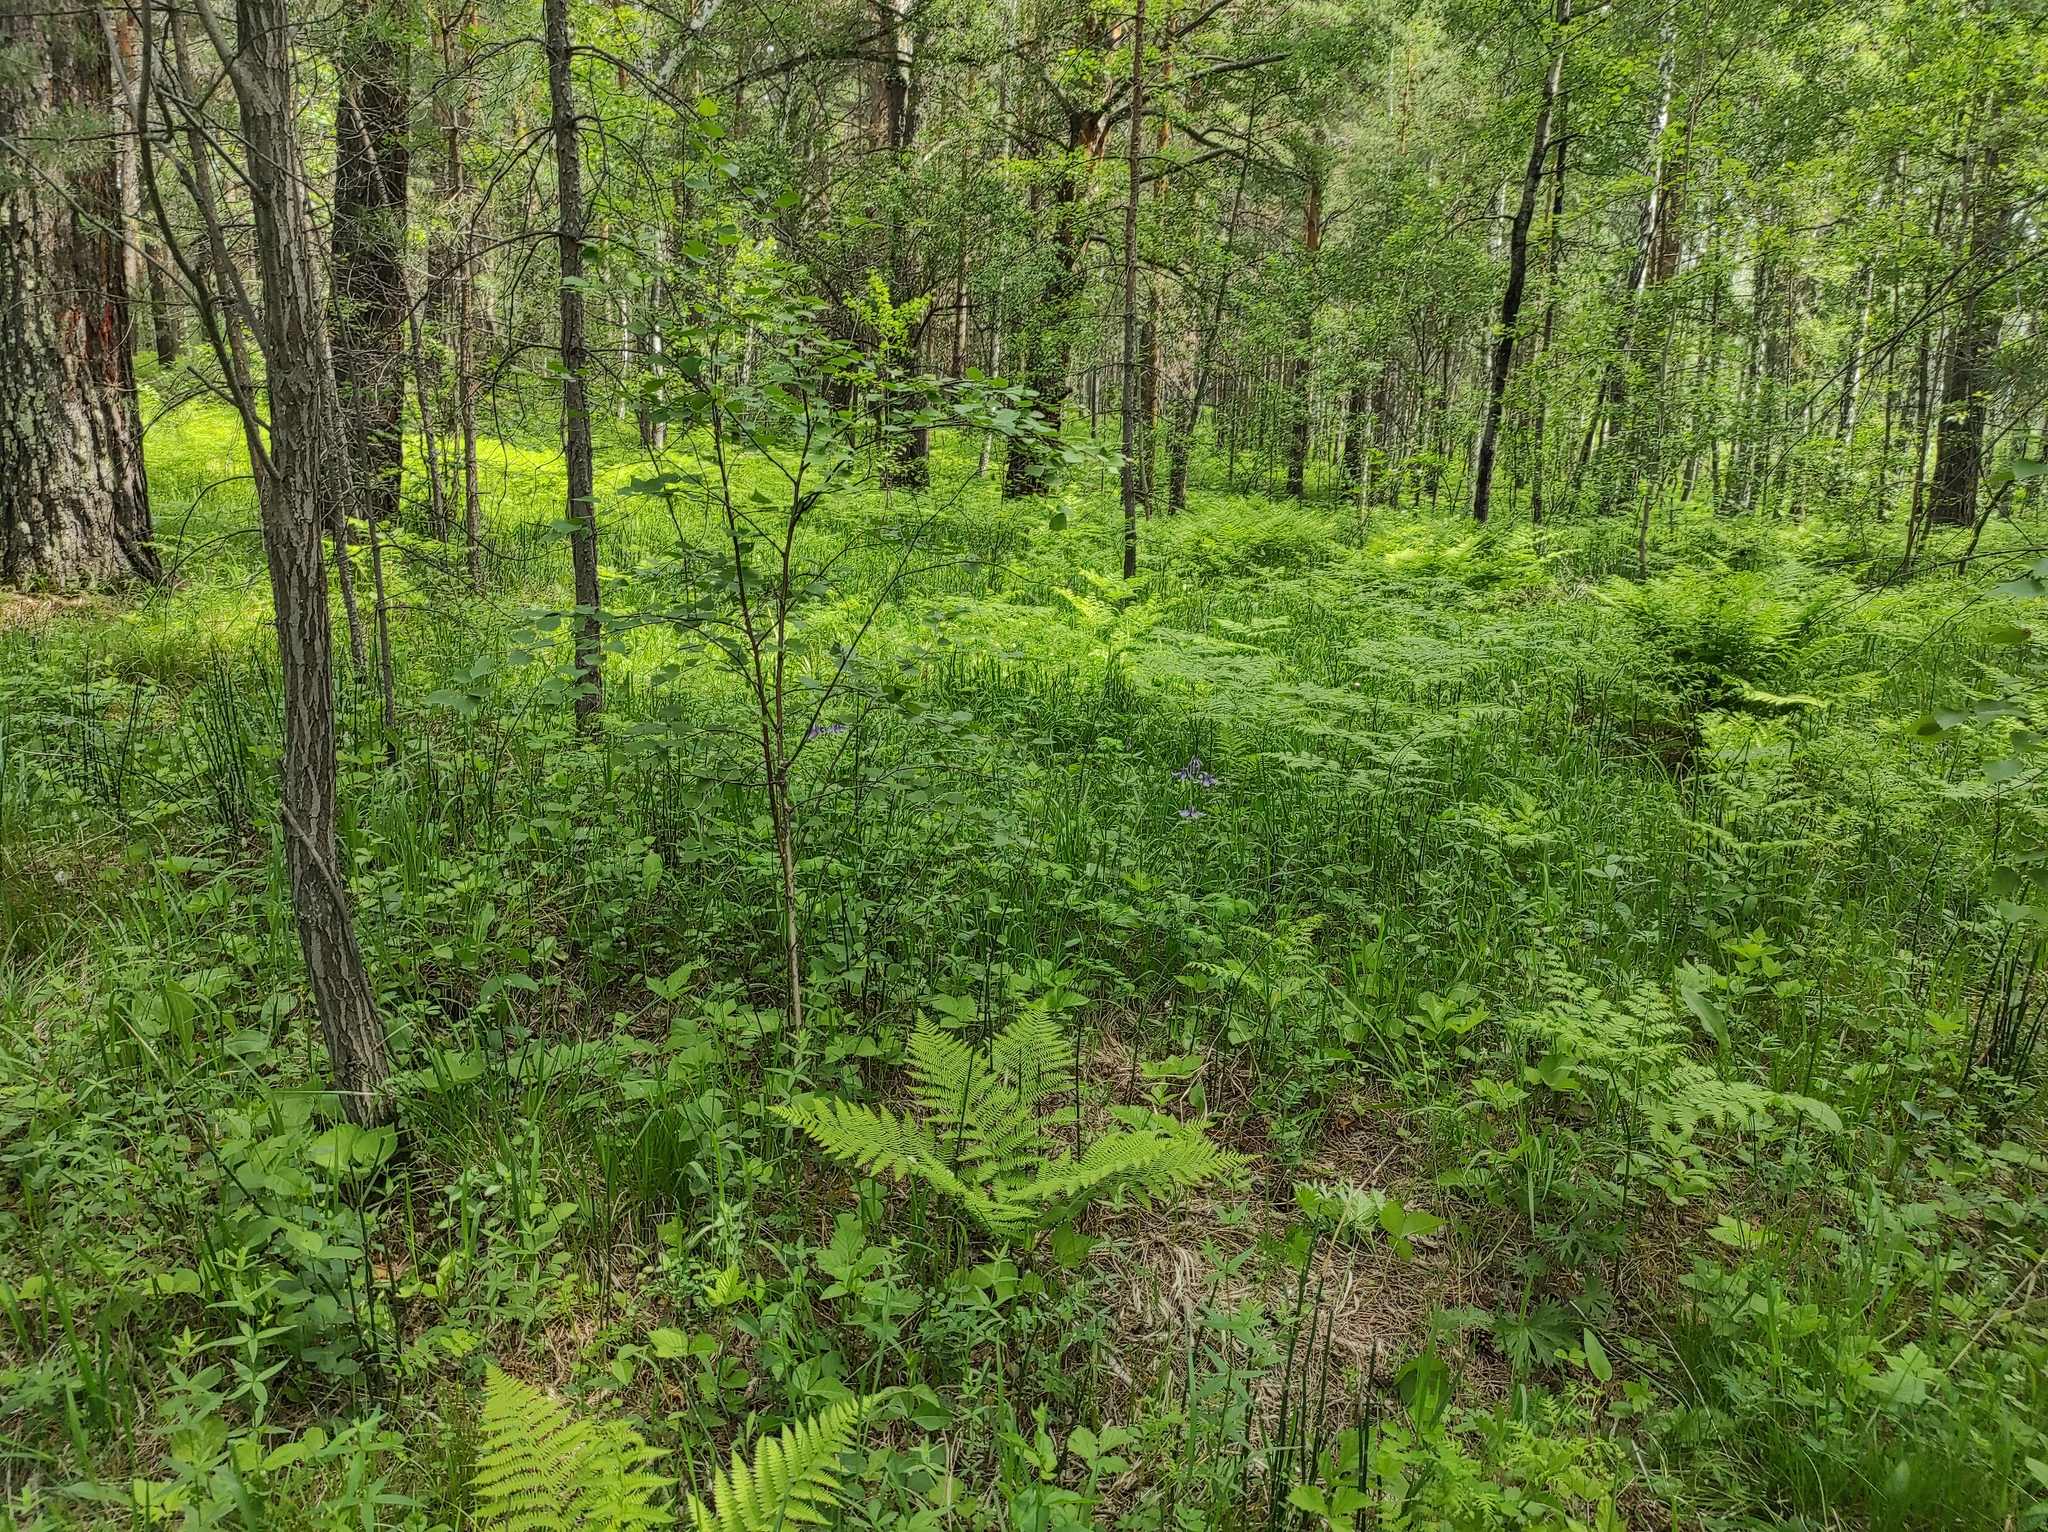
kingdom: Plantae
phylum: Tracheophyta
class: Magnoliopsida
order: Ranunculales
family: Ranunculaceae
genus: Aquilegia
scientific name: Aquilegia sibirica
